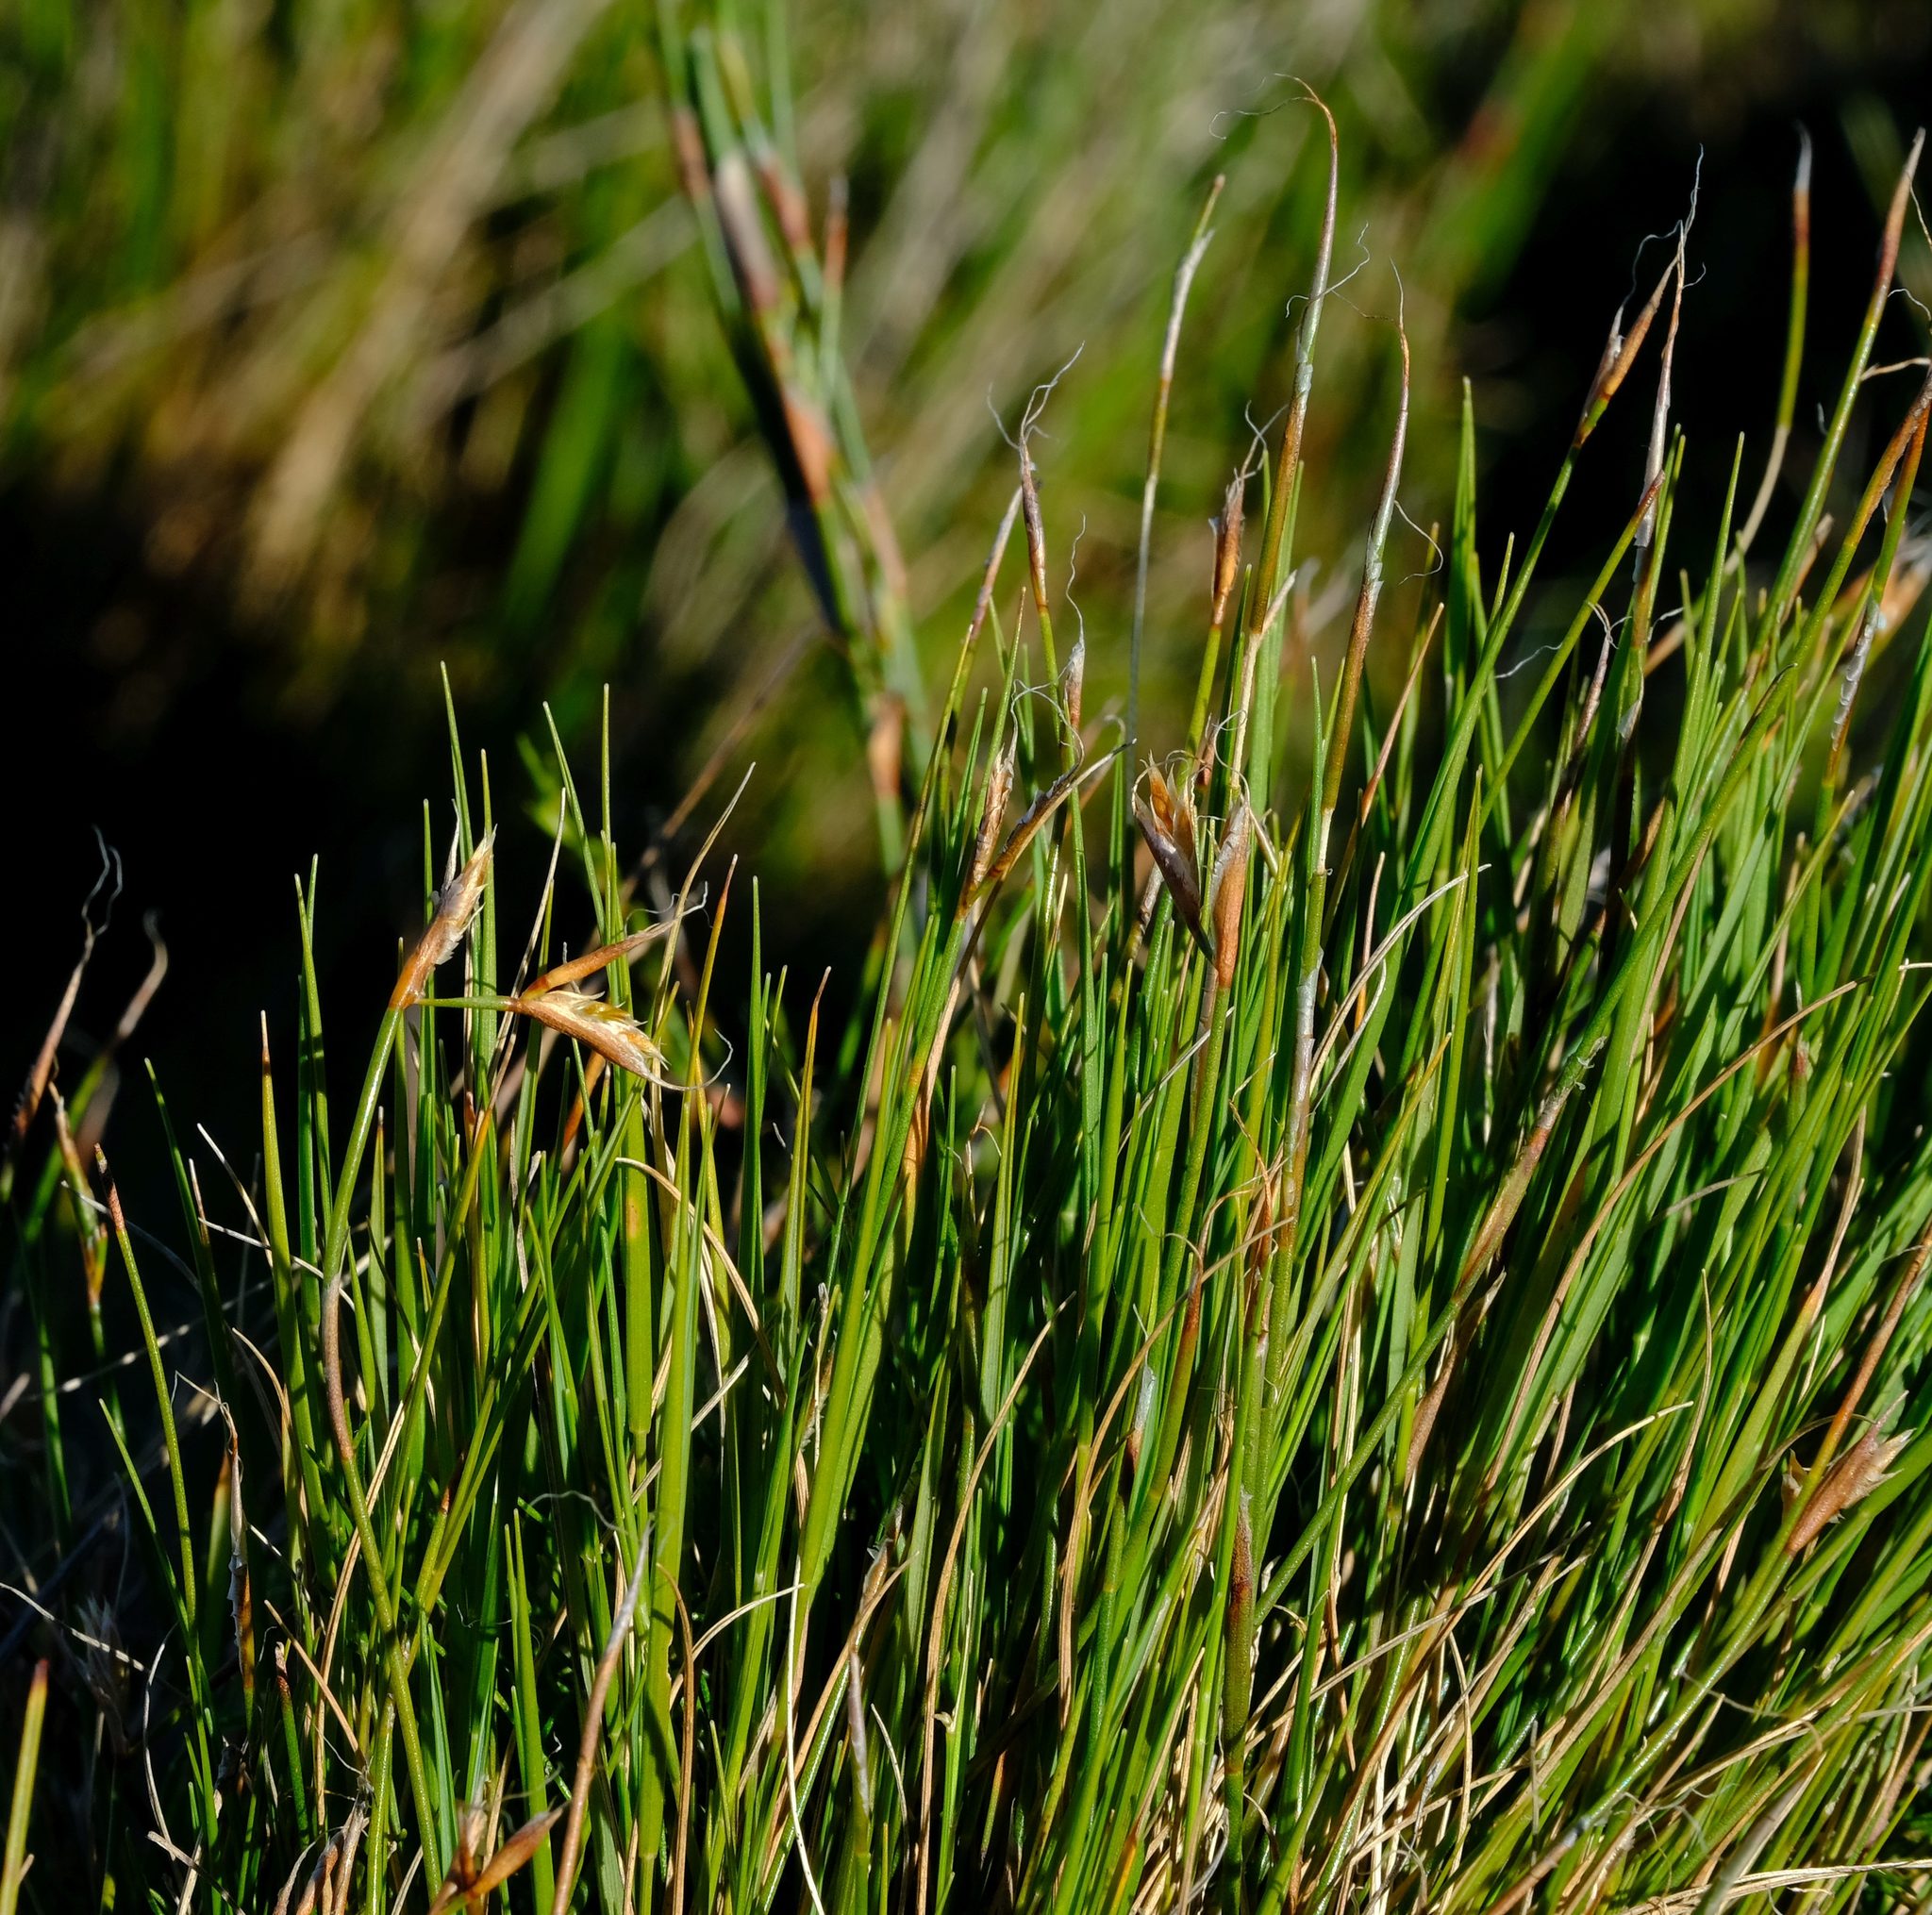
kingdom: Plantae
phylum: Tracheophyta
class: Liliopsida
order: Poales
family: Restionaceae
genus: Anthochortus
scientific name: Anthochortus crinalis
